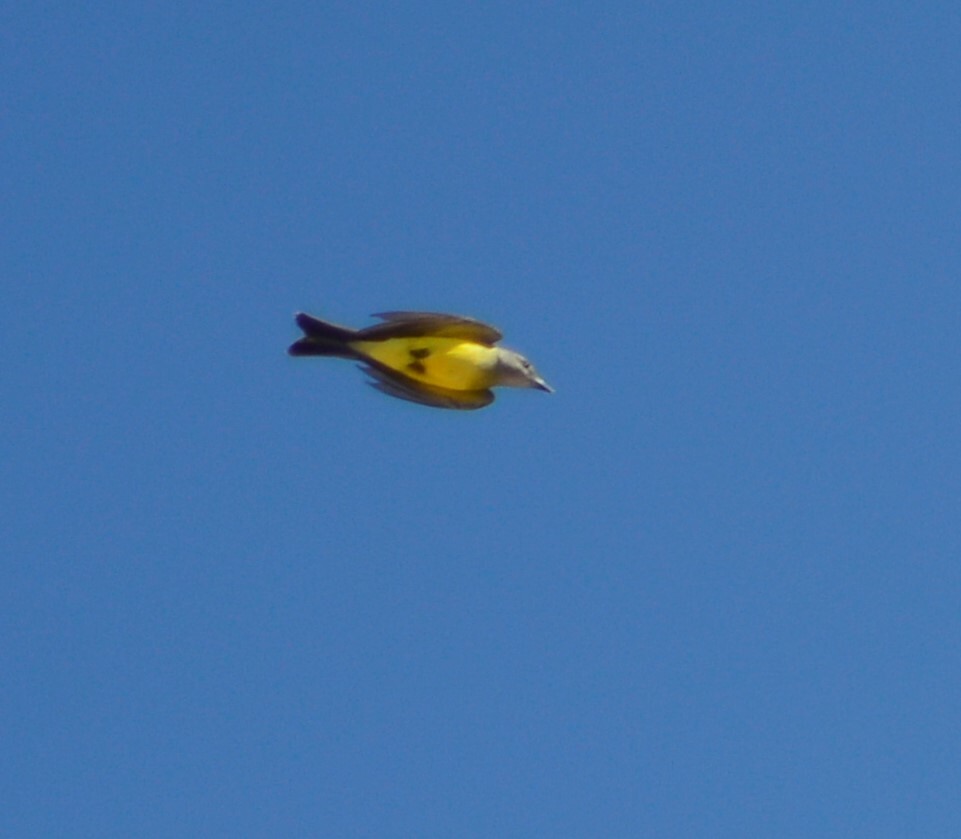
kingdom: Animalia
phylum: Chordata
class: Aves
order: Passeriformes
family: Tyrannidae
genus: Tyrannus
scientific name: Tyrannus melancholicus
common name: Tropical kingbird
